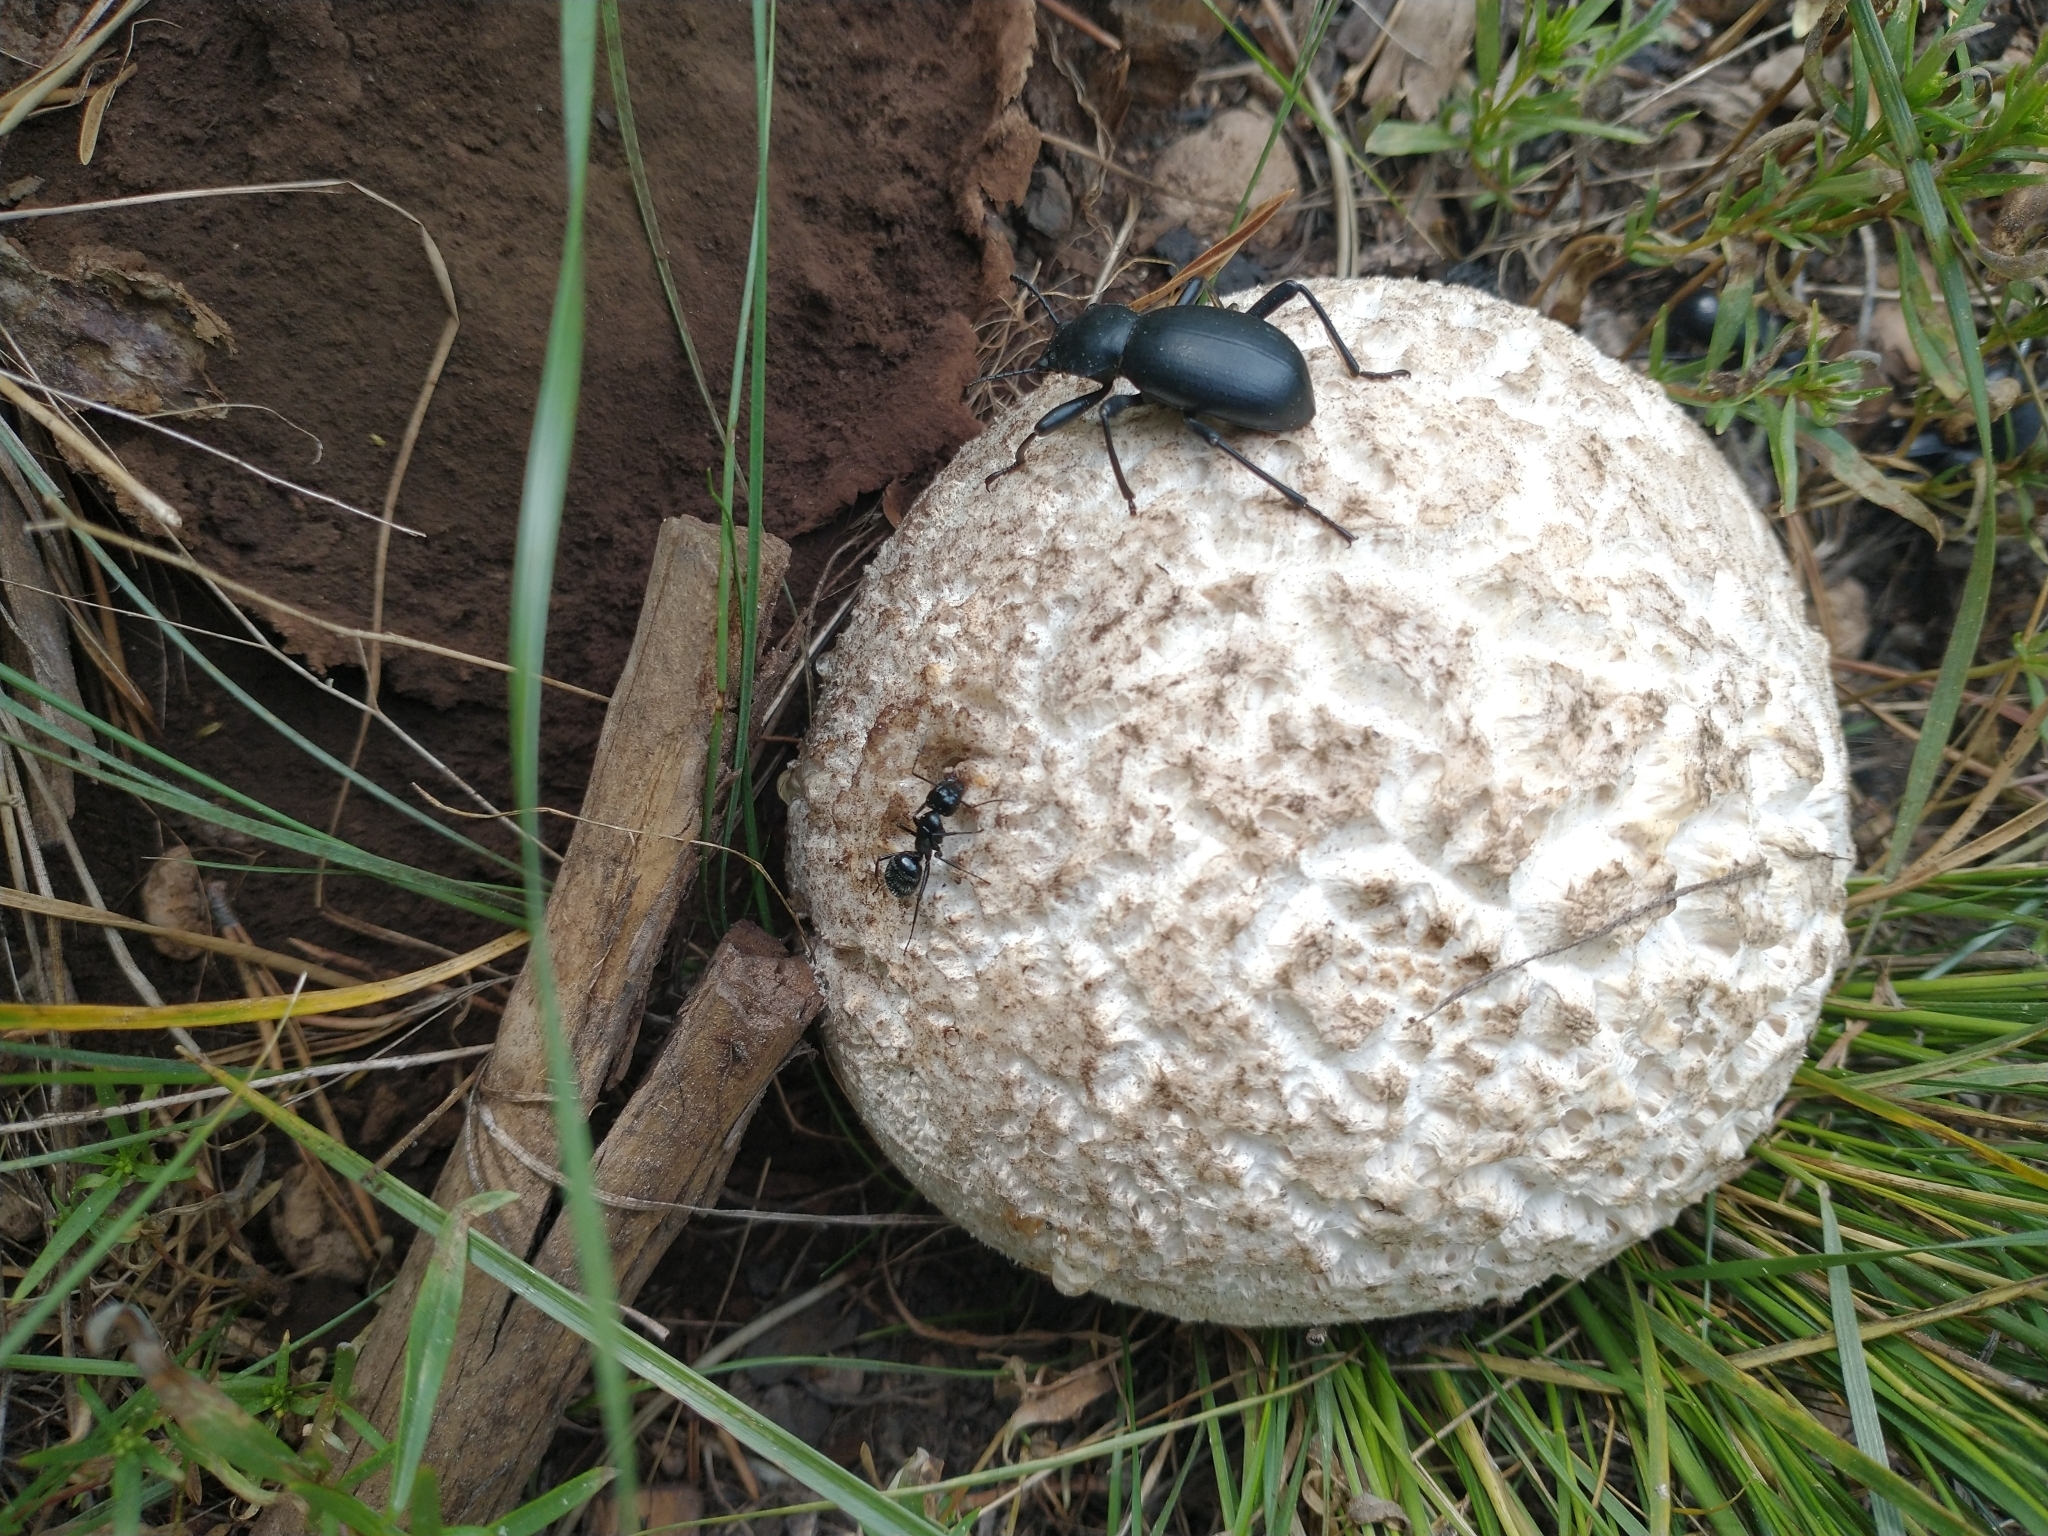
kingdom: Animalia
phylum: Arthropoda
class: Insecta
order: Coleoptera
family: Tenebrionidae
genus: Coelocnemis
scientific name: Coelocnemis dilaticollis
